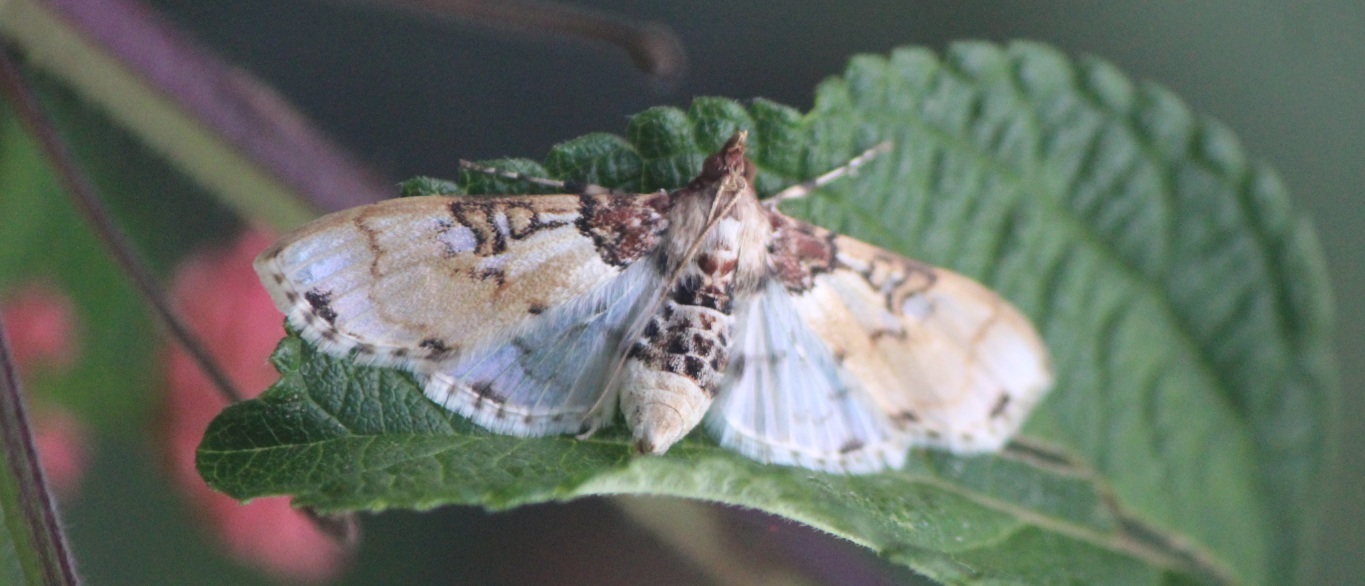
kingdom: Animalia
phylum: Arthropoda
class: Insecta
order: Lepidoptera
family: Crambidae
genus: Azochis
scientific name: Azochis rufidiscalis
